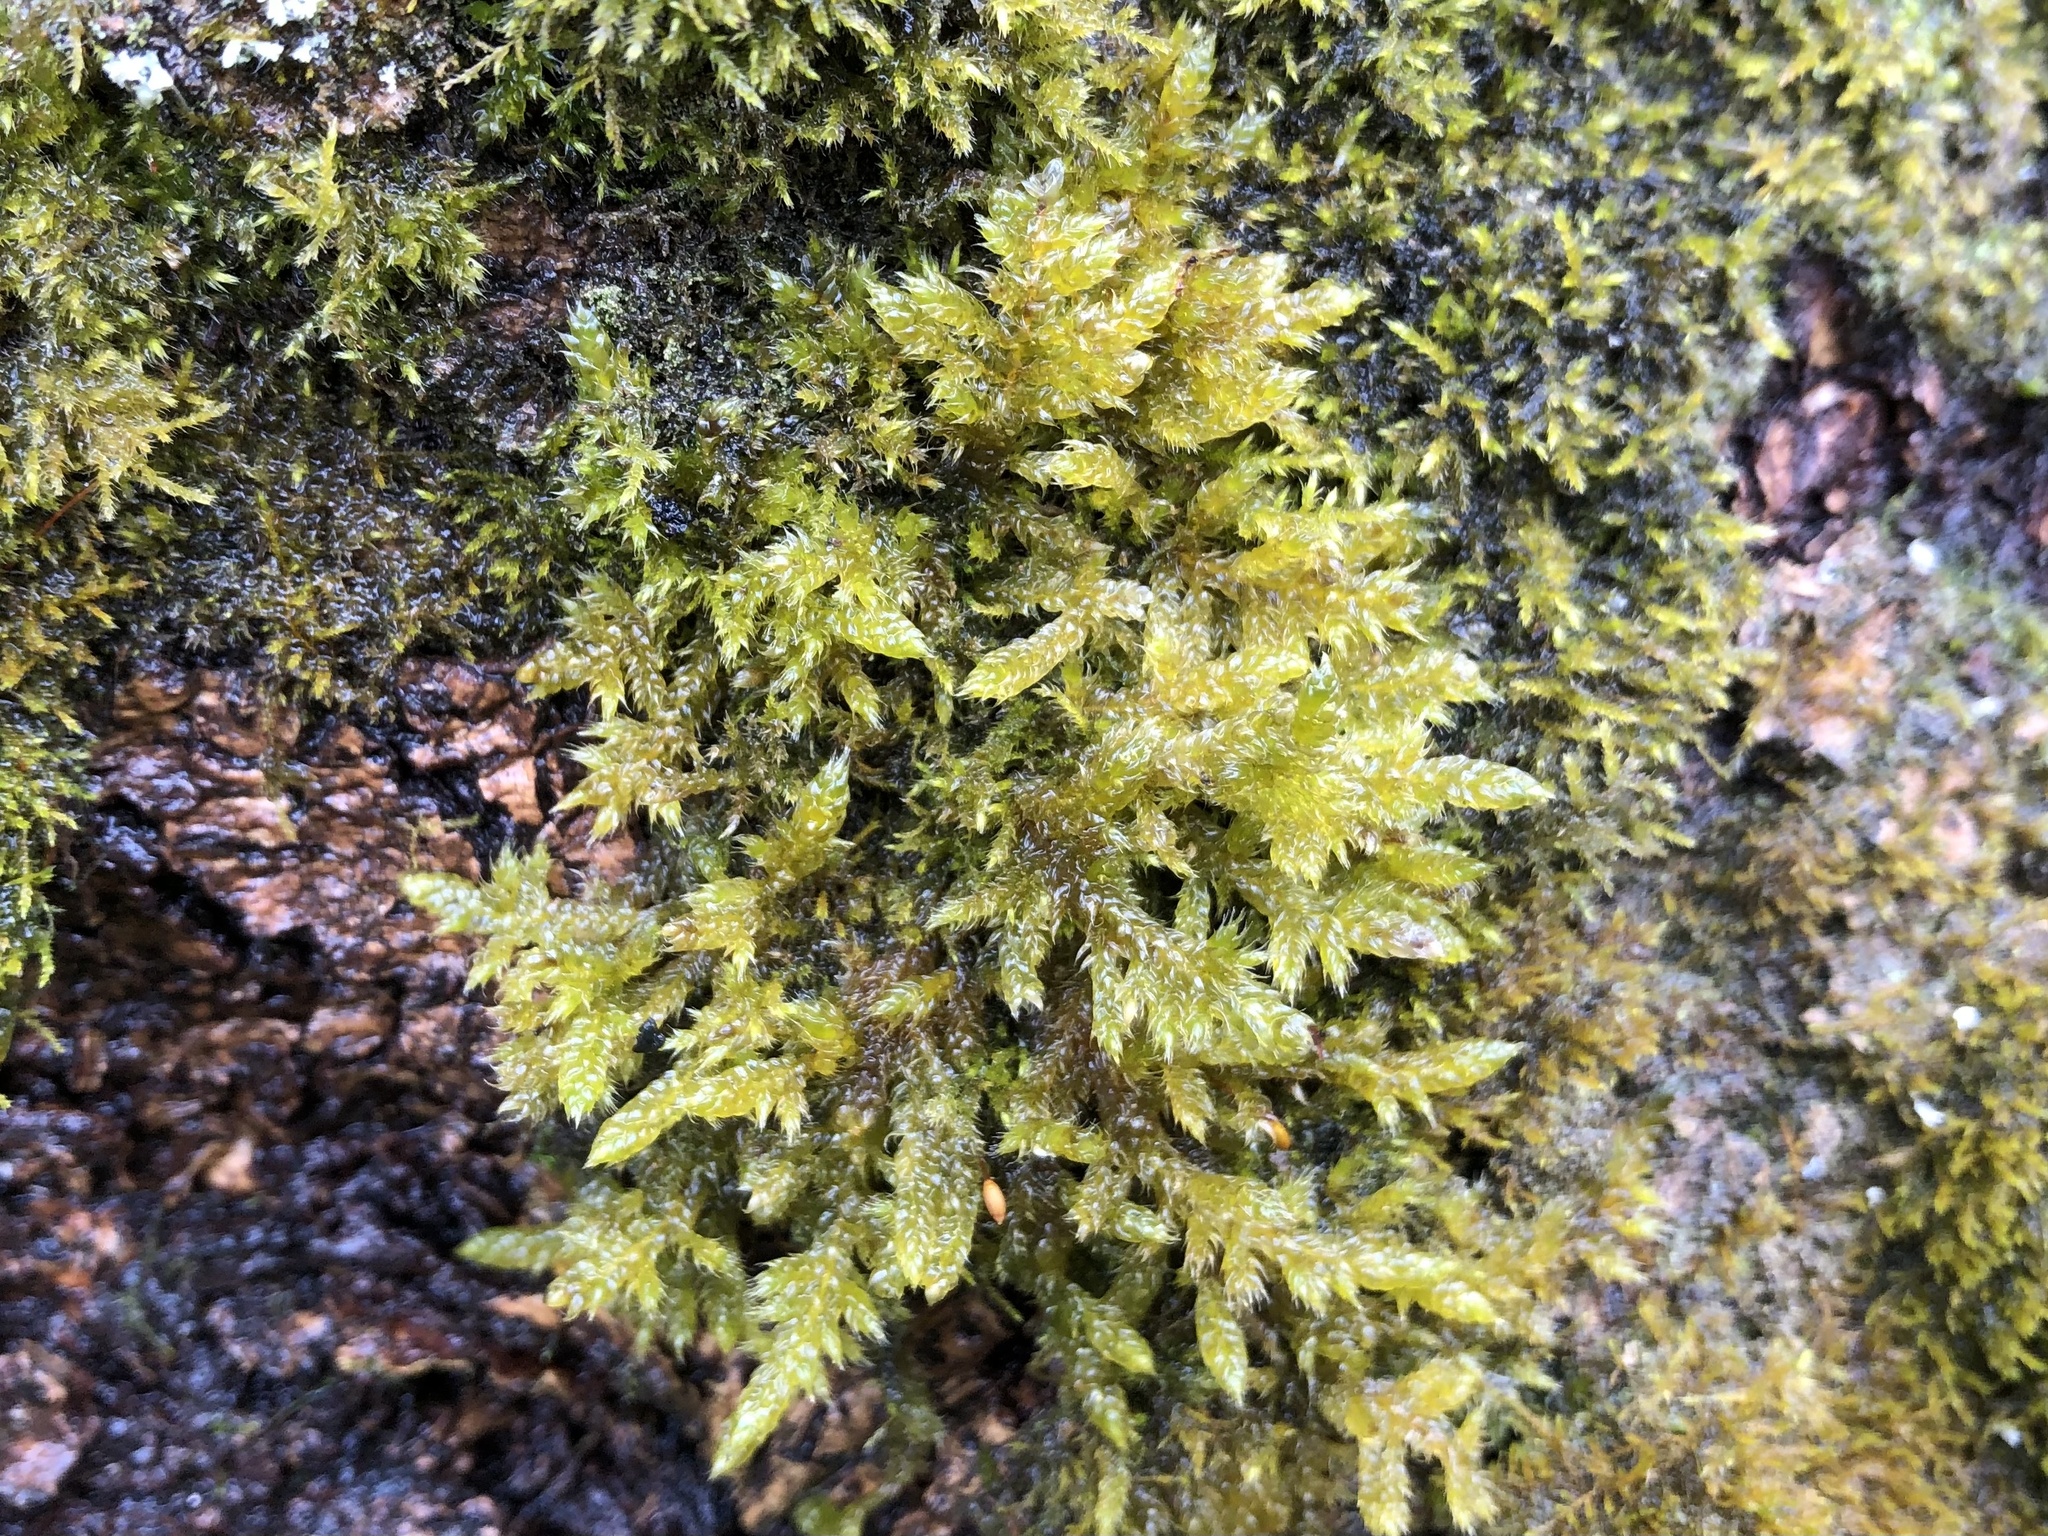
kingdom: Plantae
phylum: Bryophyta
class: Bryopsida
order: Hypnales
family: Hypnaceae
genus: Hypnum
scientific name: Hypnum cupressiforme
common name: Cypress-leaved plait-moss
